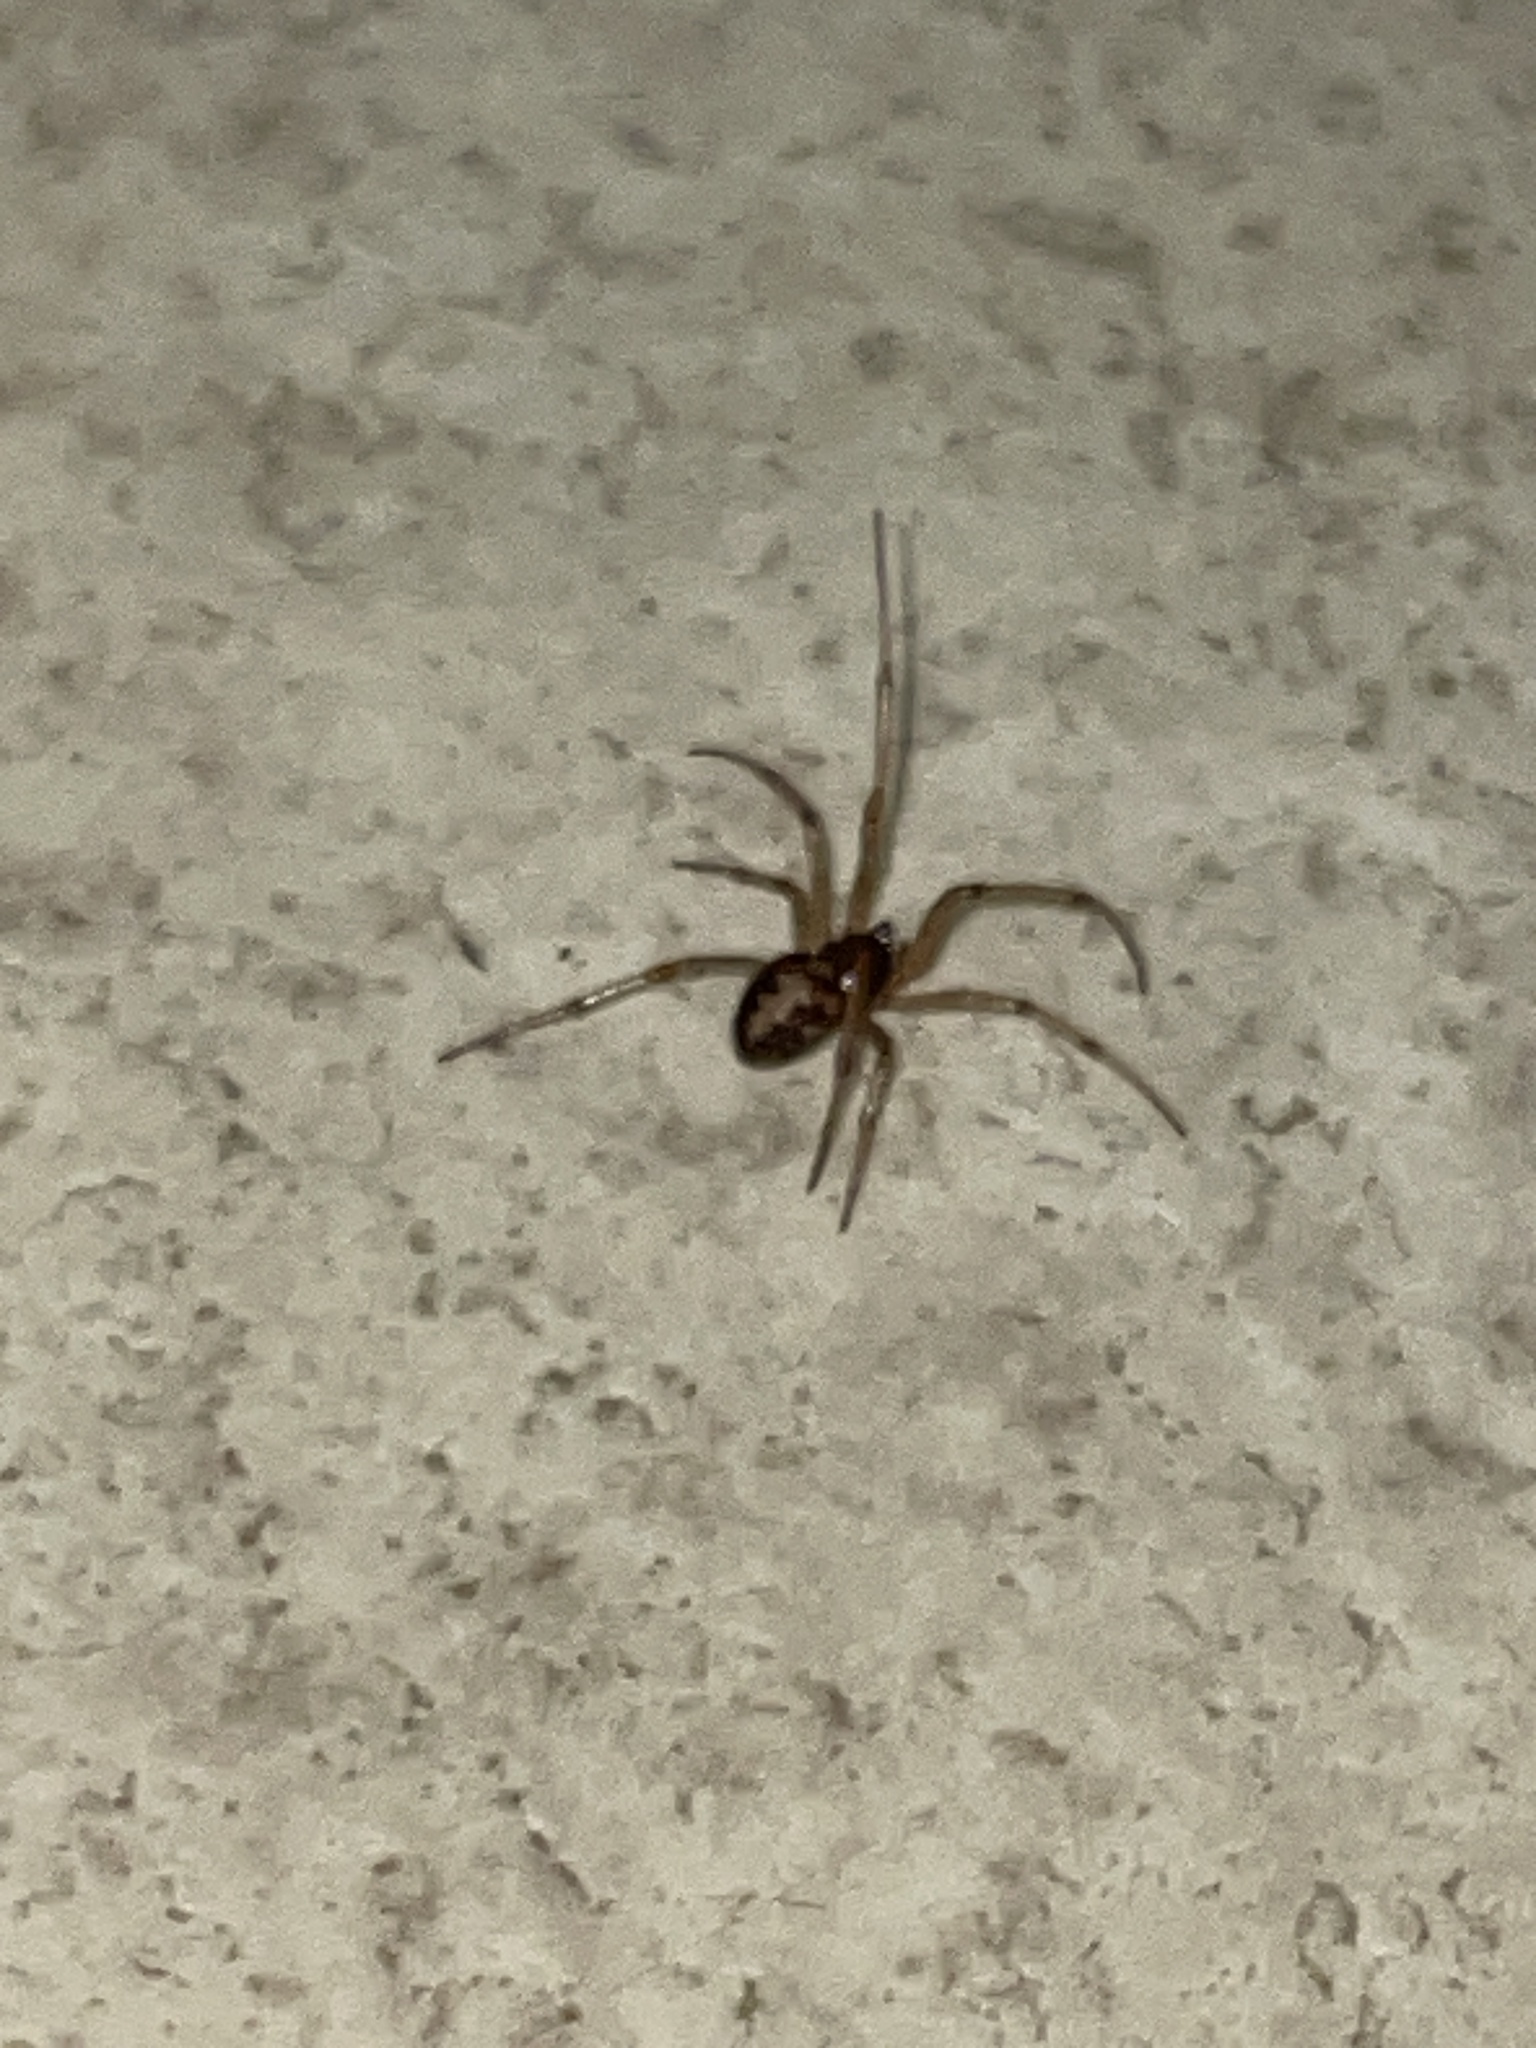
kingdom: Animalia
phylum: Arthropoda
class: Arachnida
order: Araneae
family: Theridiidae
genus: Steatoda
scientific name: Steatoda triangulosa
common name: Triangulate bud spider
